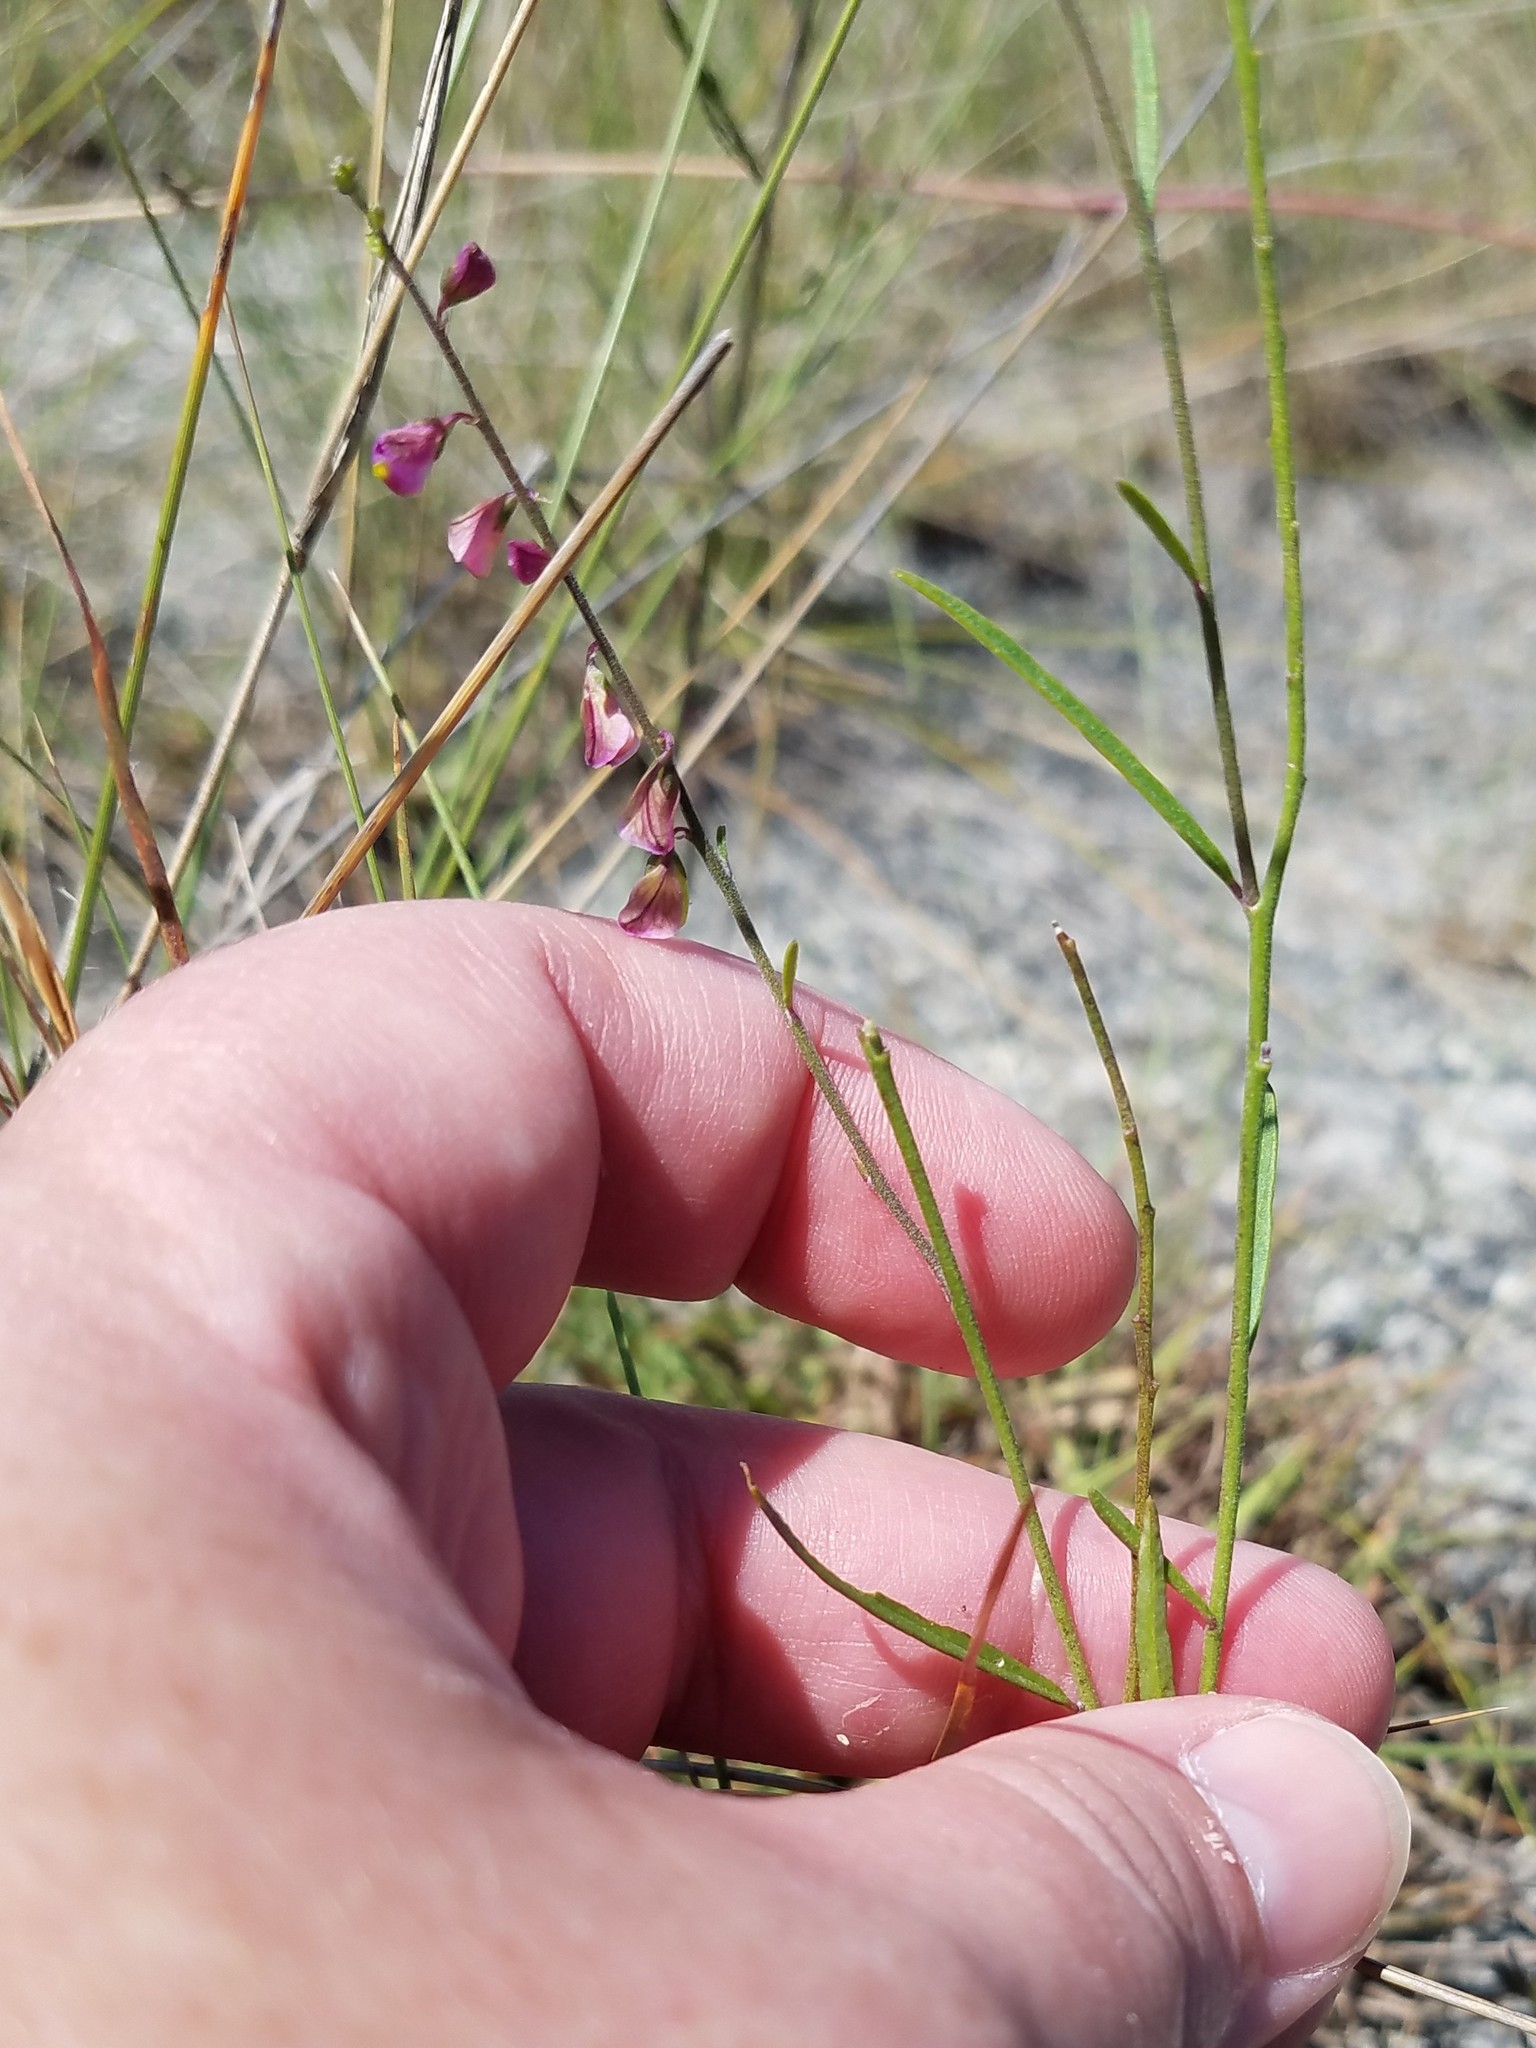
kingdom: Plantae
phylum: Tracheophyta
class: Magnoliopsida
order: Fabales
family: Polygalaceae
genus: Asemeia
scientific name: Asemeia grandiflora
